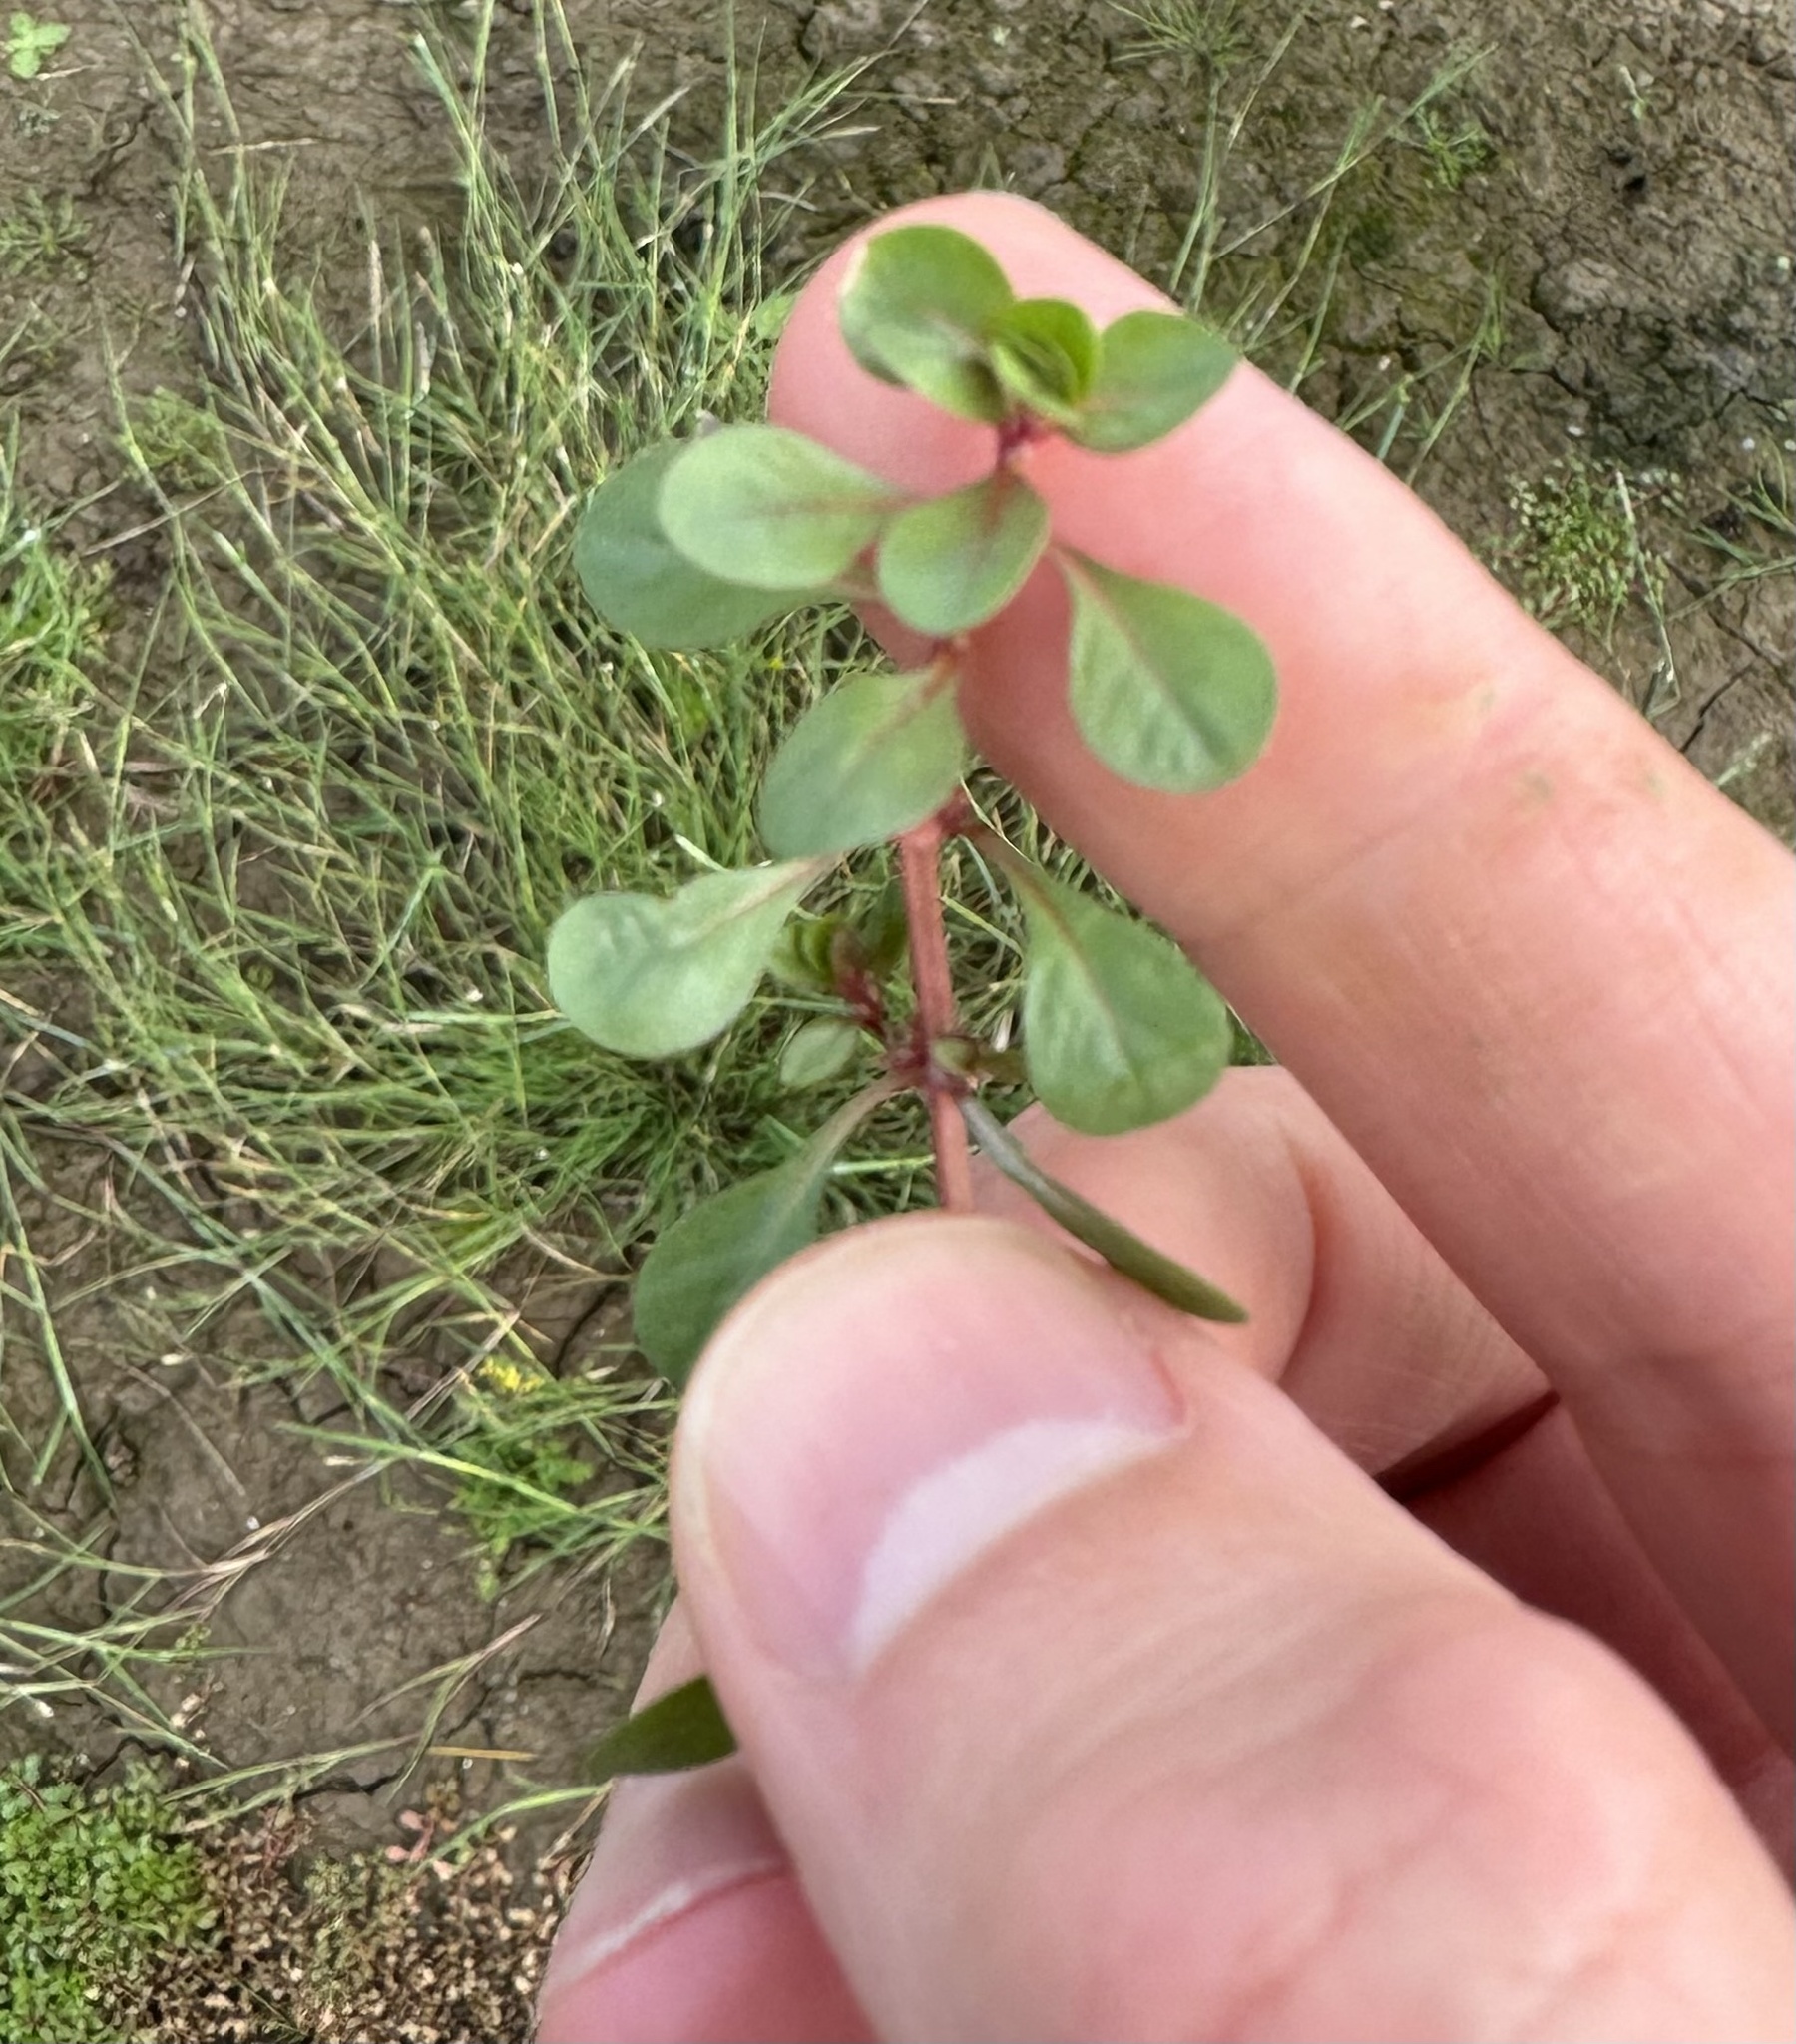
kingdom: Plantae
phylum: Tracheophyta
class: Magnoliopsida
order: Myrtales
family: Lythraceae
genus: Lythrum
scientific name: Lythrum portula
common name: Water purslane
